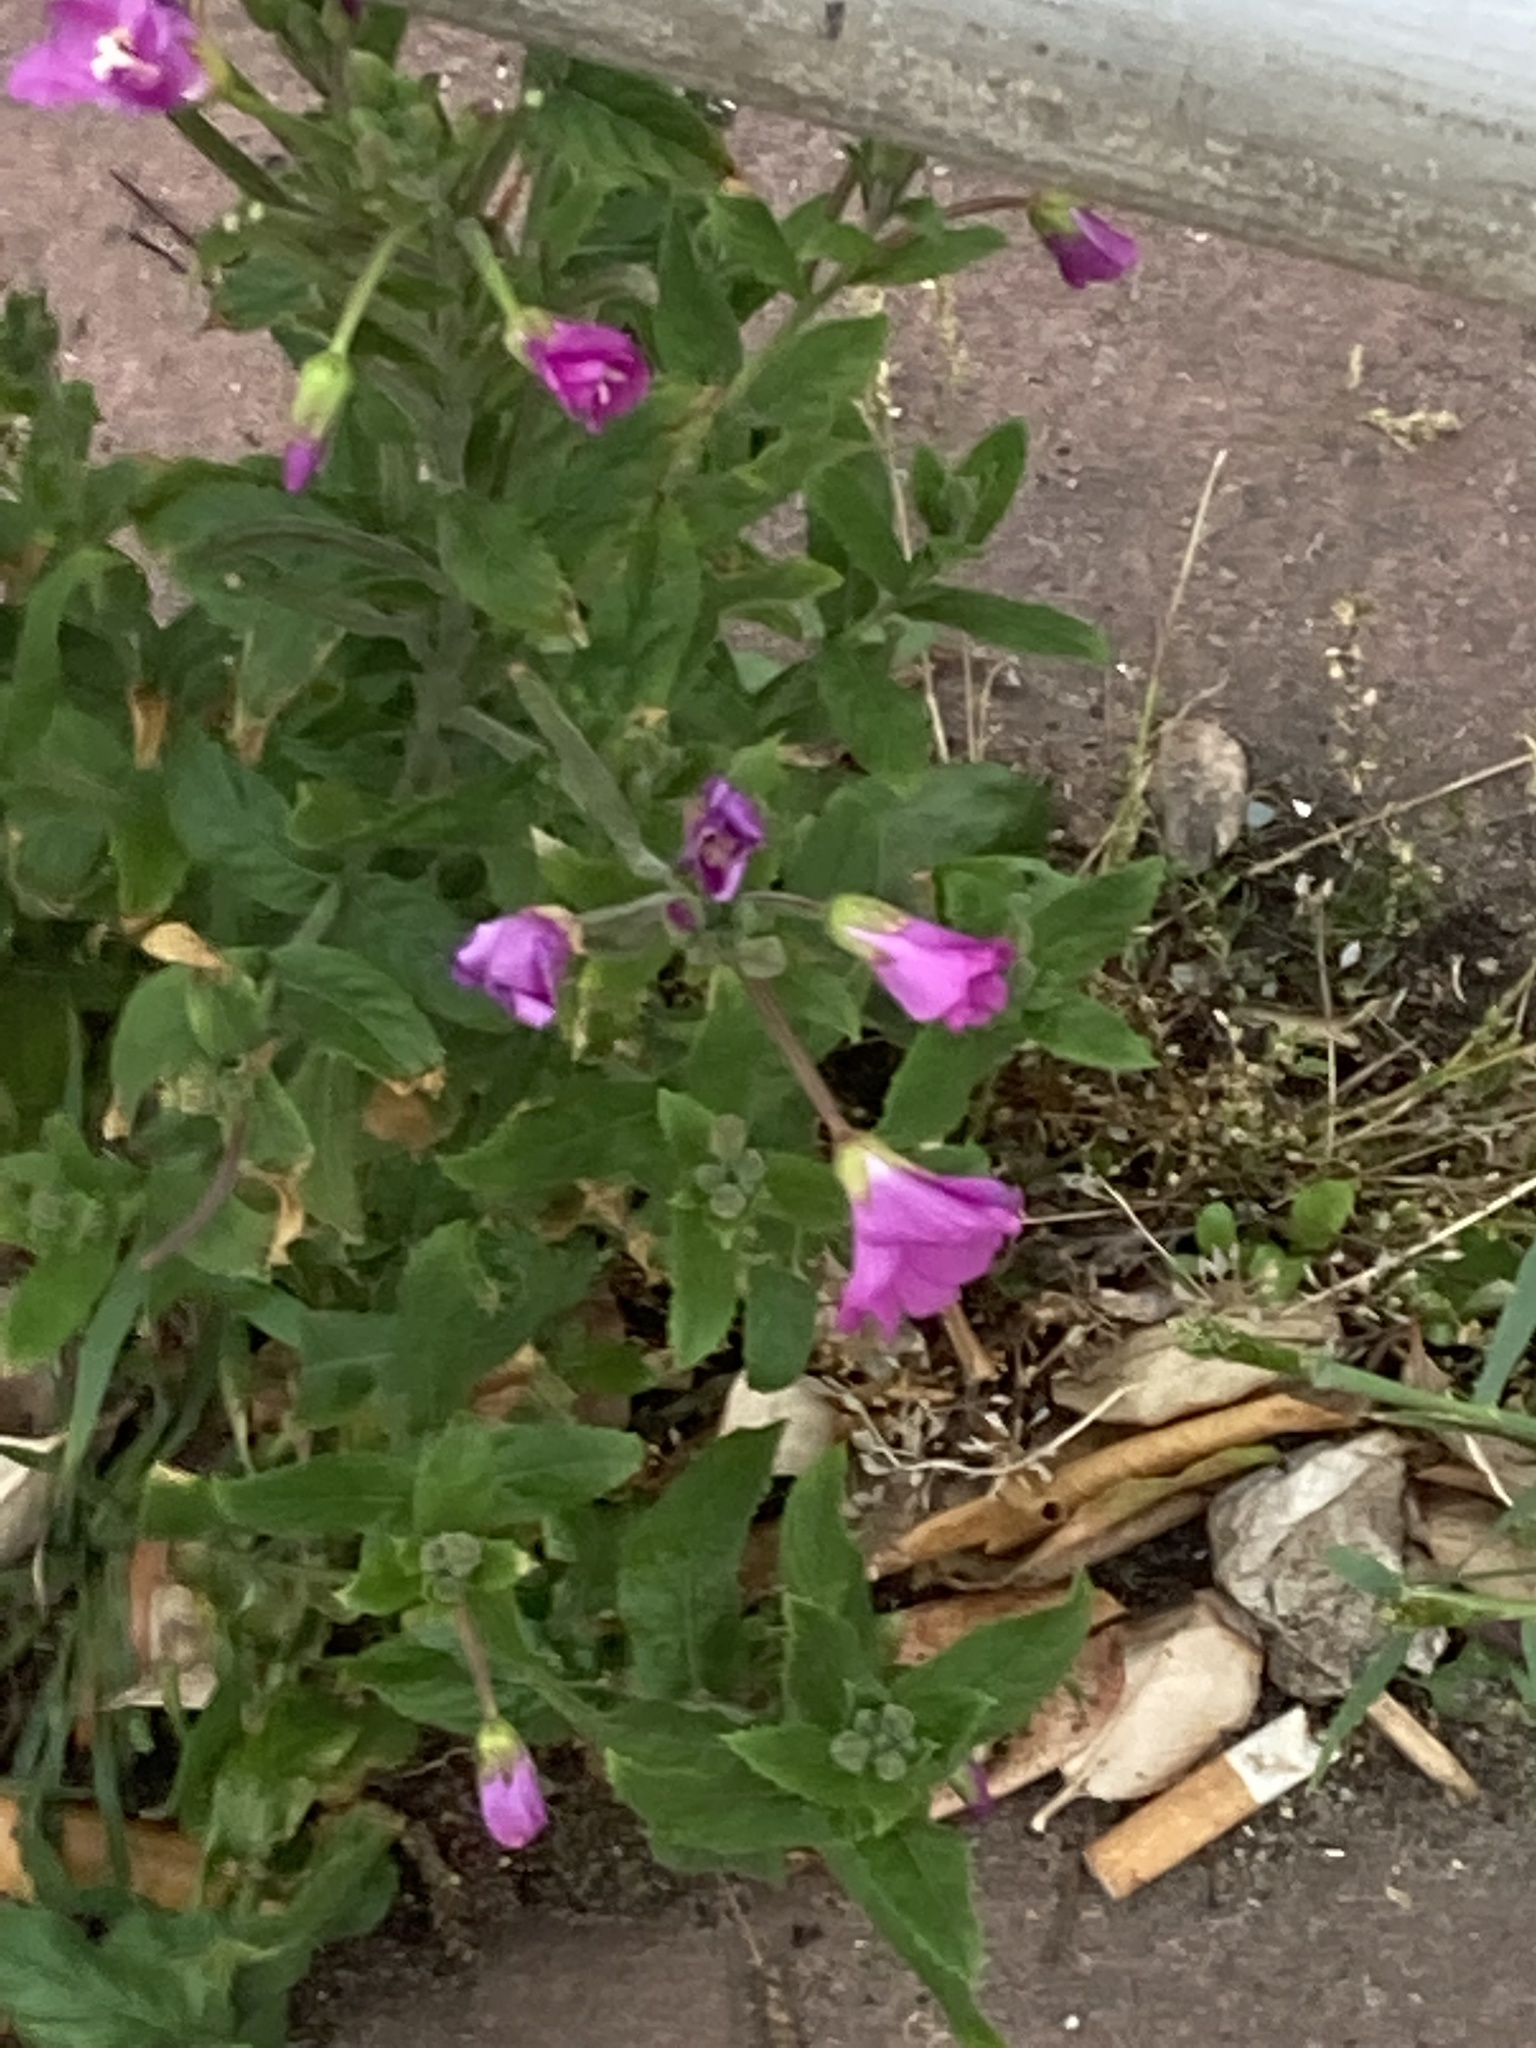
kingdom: Plantae
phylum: Tracheophyta
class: Magnoliopsida
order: Myrtales
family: Onagraceae
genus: Epilobium
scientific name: Epilobium hirsutum
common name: Great willowherb
